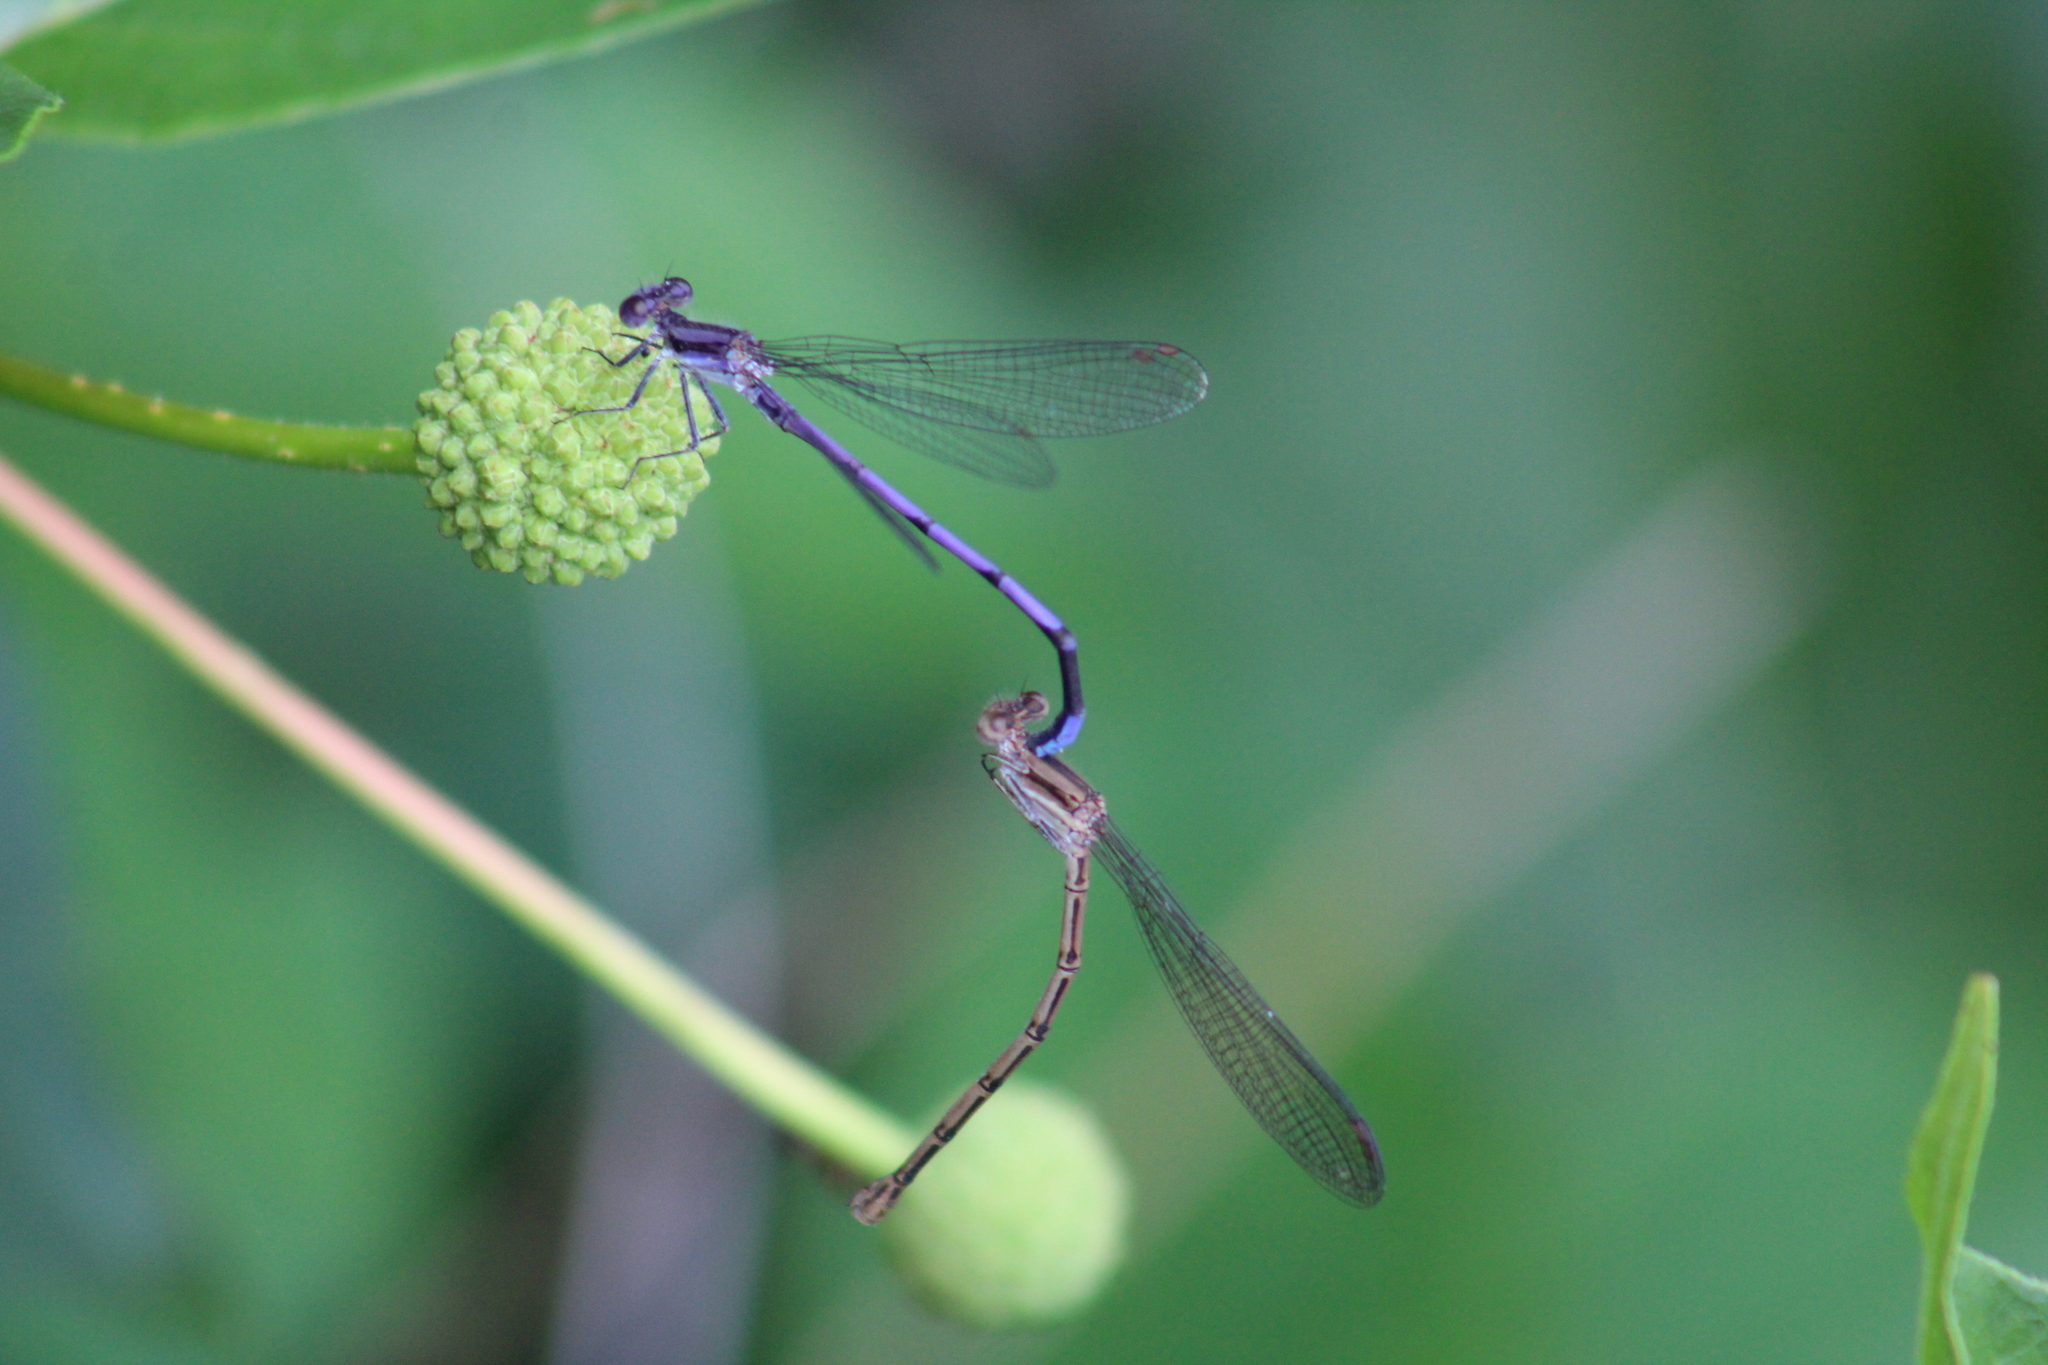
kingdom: Animalia
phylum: Arthropoda
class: Insecta
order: Odonata
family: Coenagrionidae
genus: Argia
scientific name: Argia fumipennis
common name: Variable dancer
